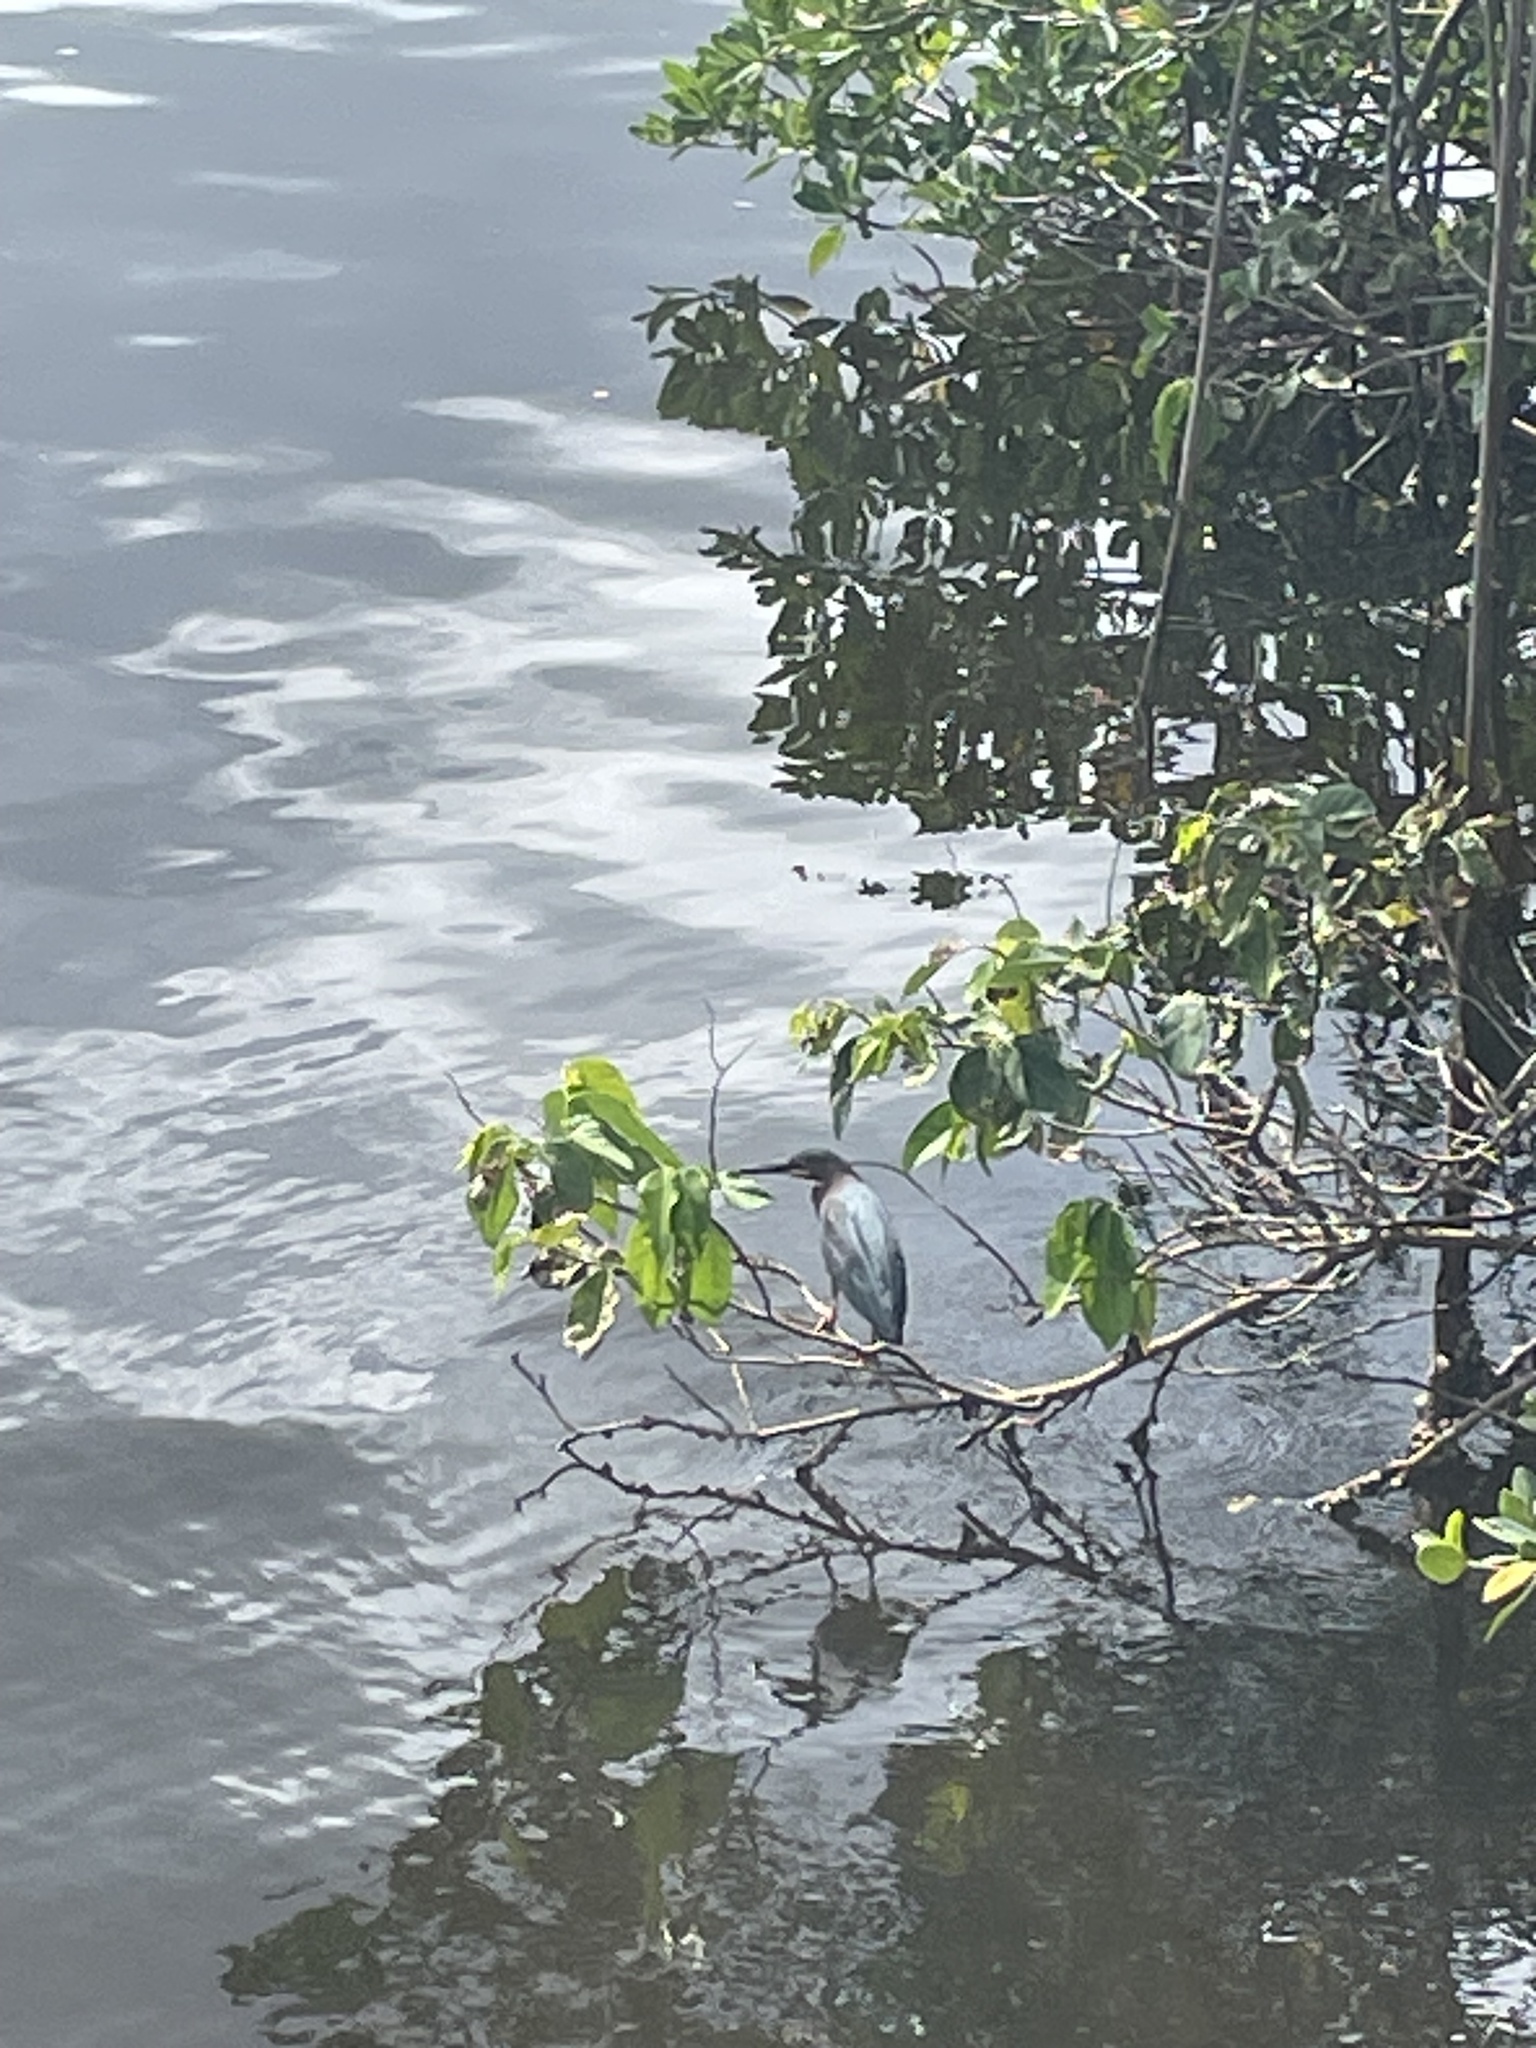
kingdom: Animalia
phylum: Chordata
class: Aves
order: Pelecaniformes
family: Ardeidae
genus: Butorides
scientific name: Butorides virescens
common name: Green heron
